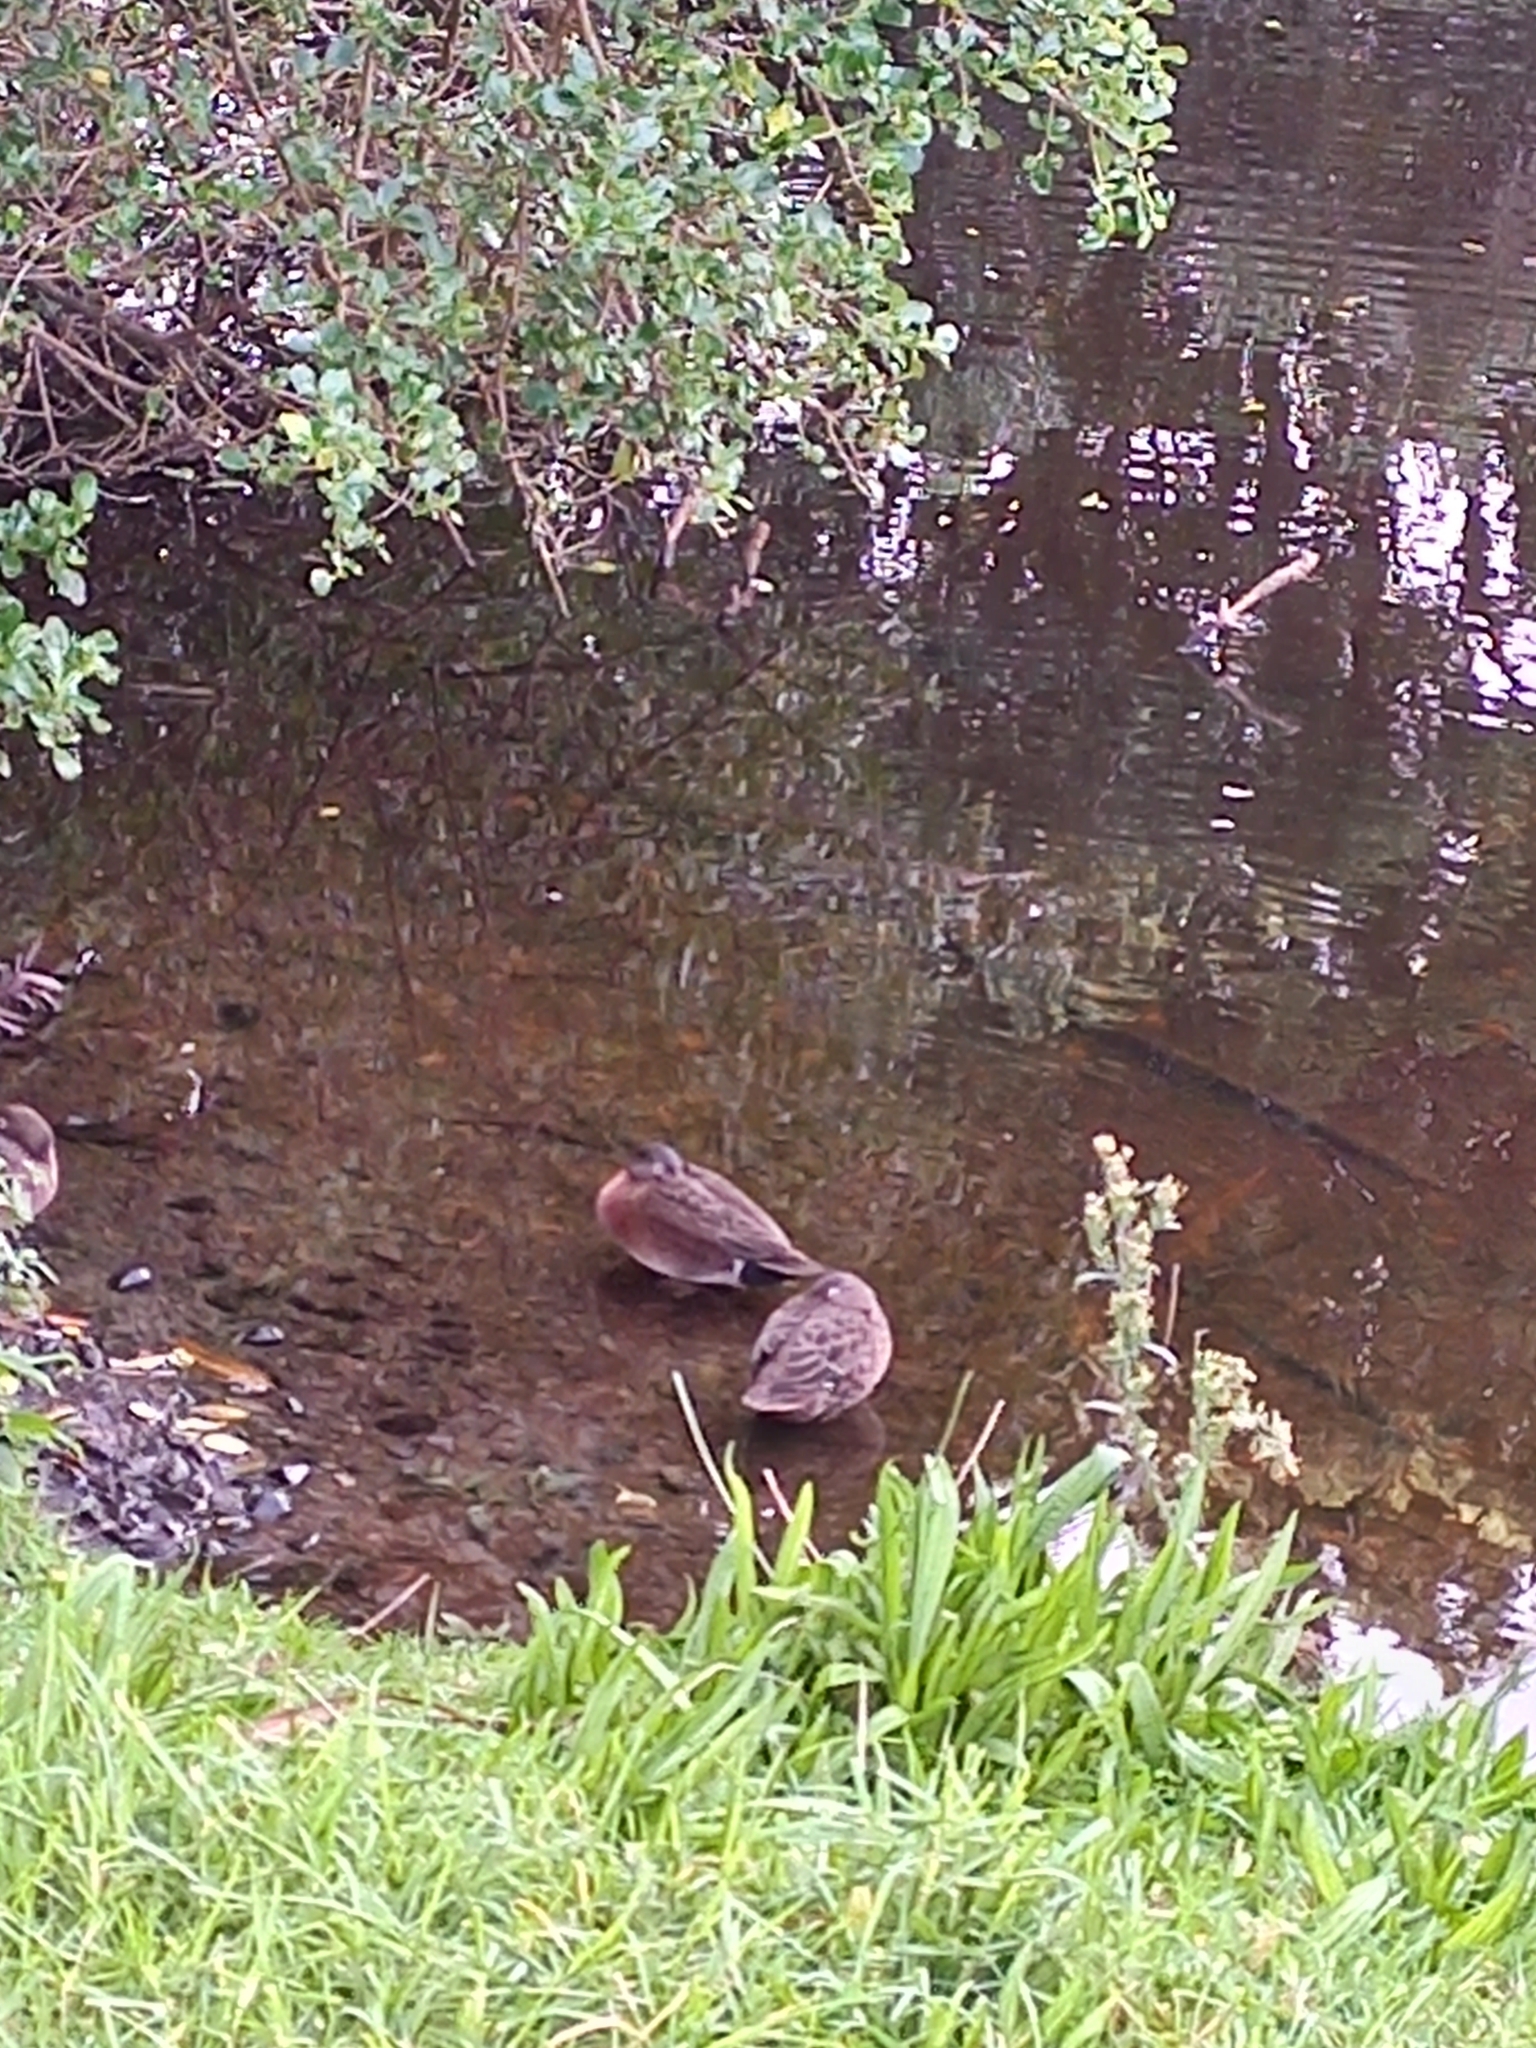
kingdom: Animalia
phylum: Chordata
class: Aves
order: Anseriformes
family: Anatidae
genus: Anas
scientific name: Anas chlorotis
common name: Brown teal
